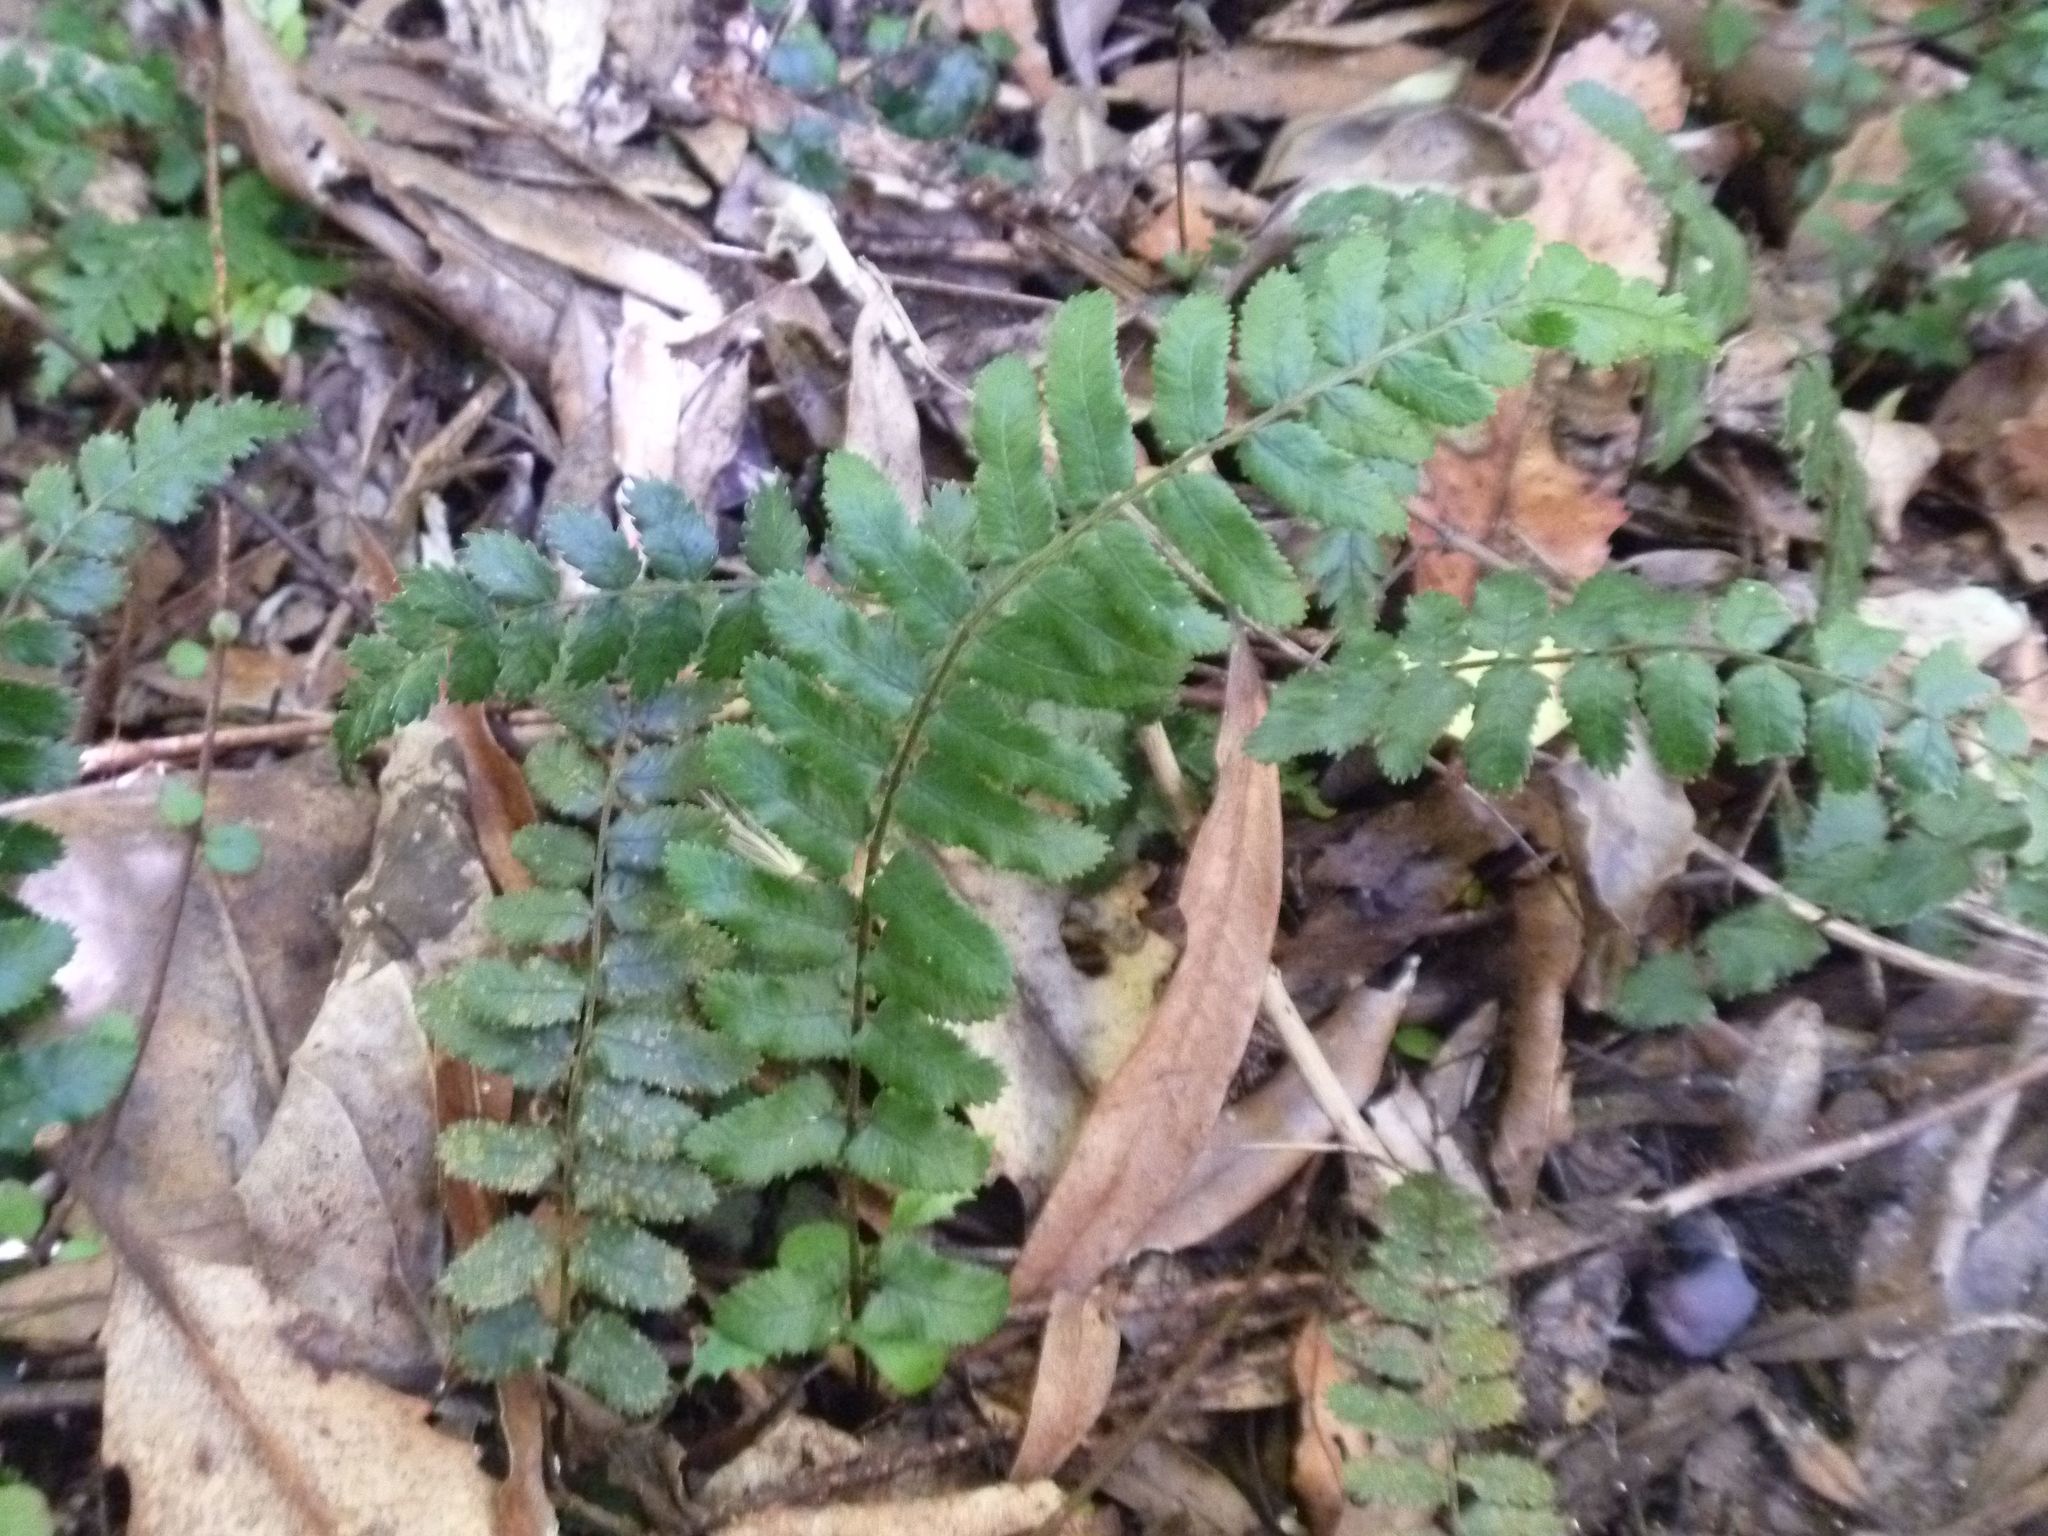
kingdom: Plantae
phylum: Tracheophyta
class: Polypodiopsida
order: Polypodiales
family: Blechnaceae
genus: Icarus
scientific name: Icarus filiformis
